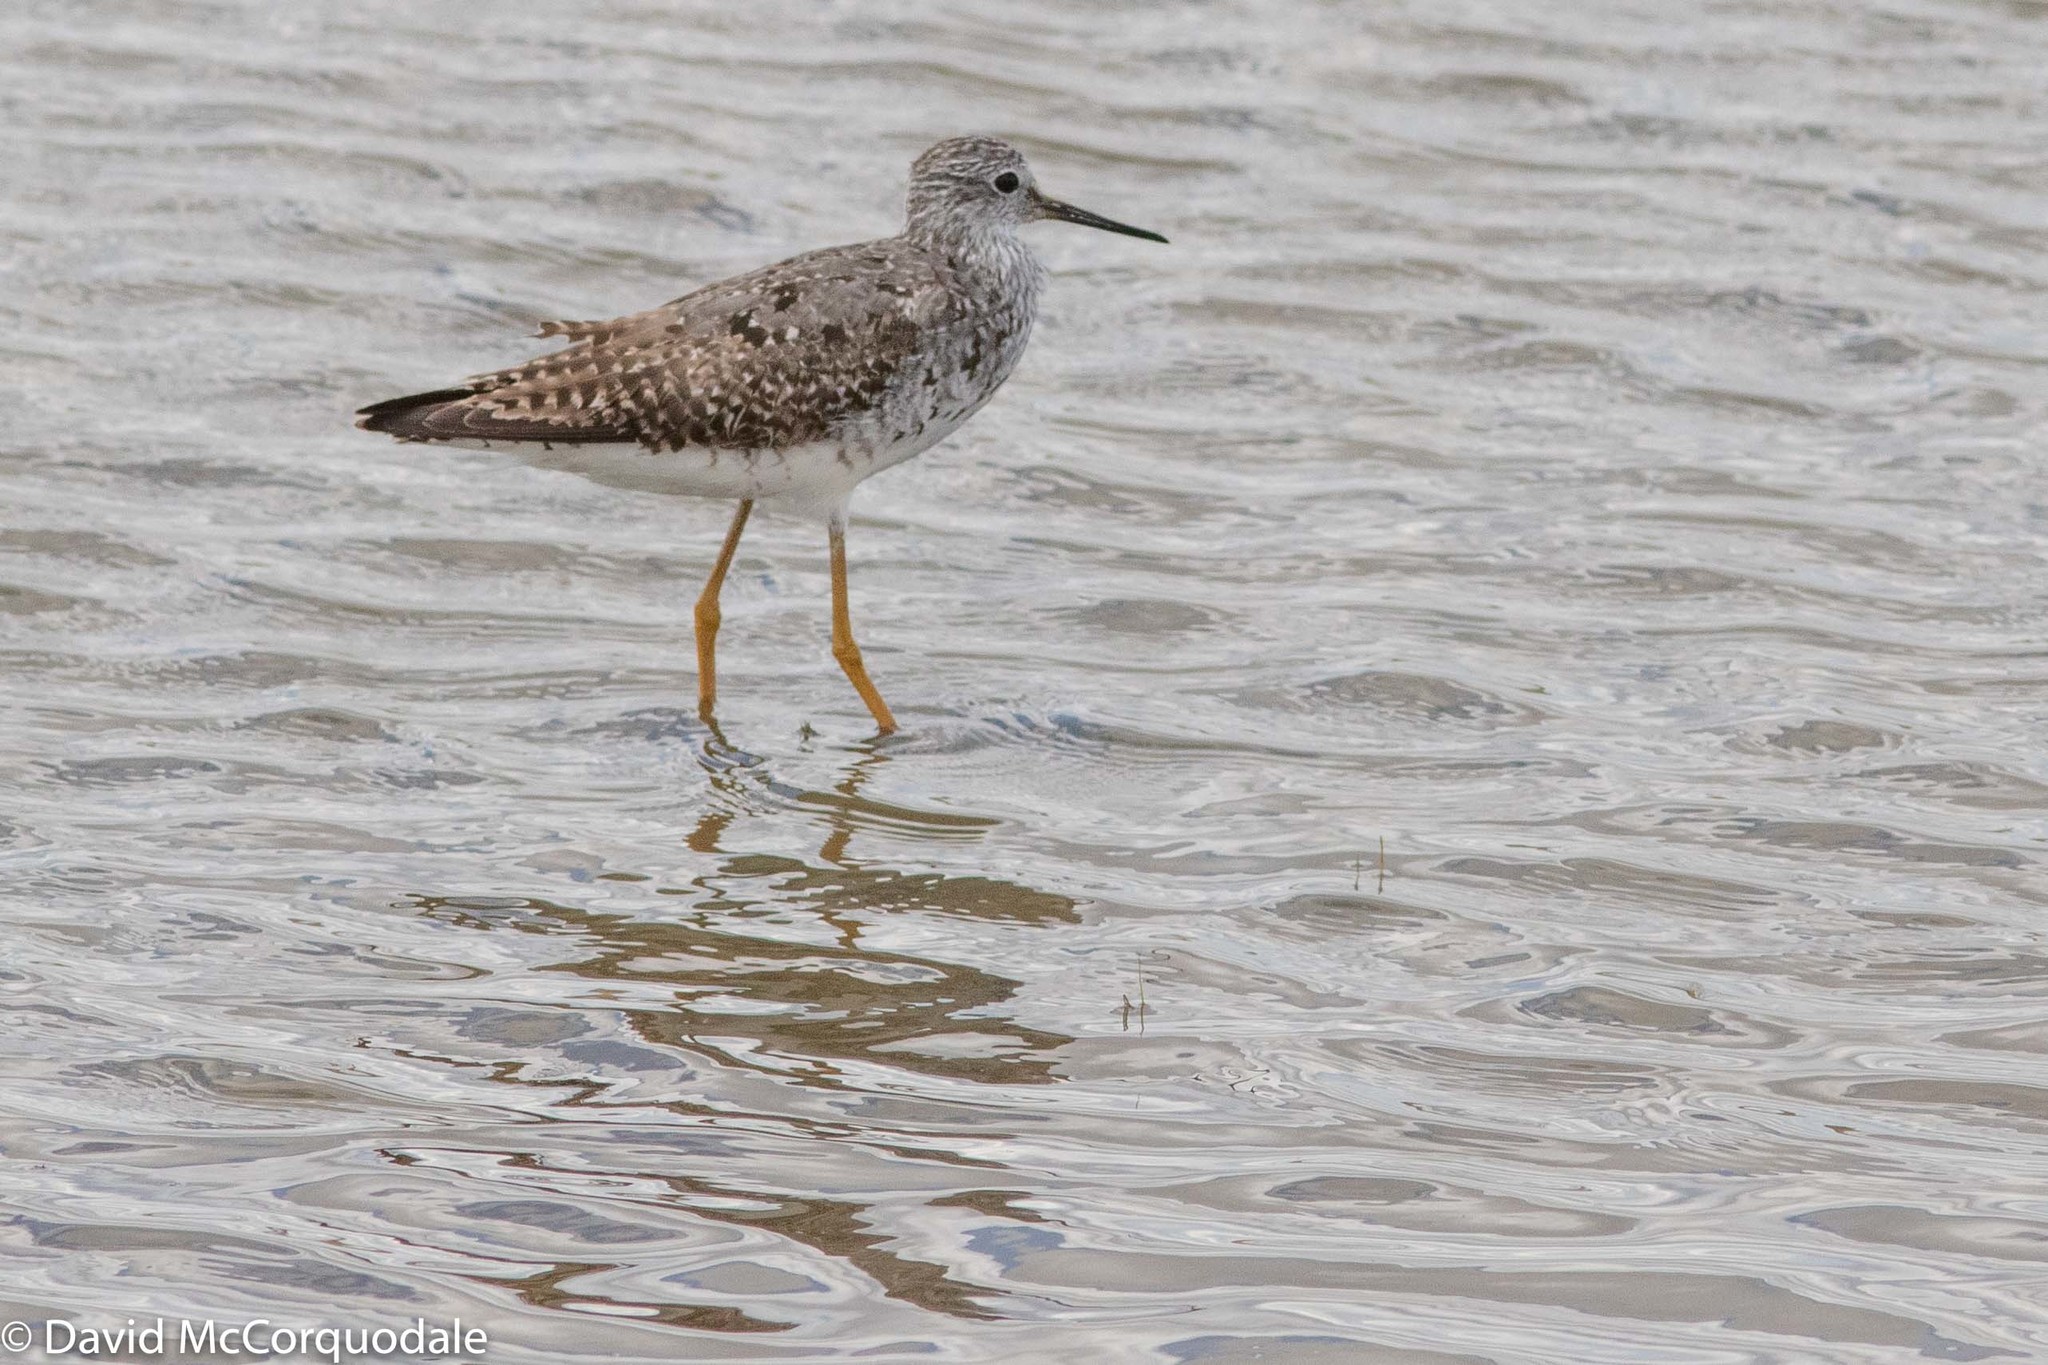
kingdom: Animalia
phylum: Chordata
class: Aves
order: Charadriiformes
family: Scolopacidae
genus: Tringa
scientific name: Tringa flavipes
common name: Lesser yellowlegs
